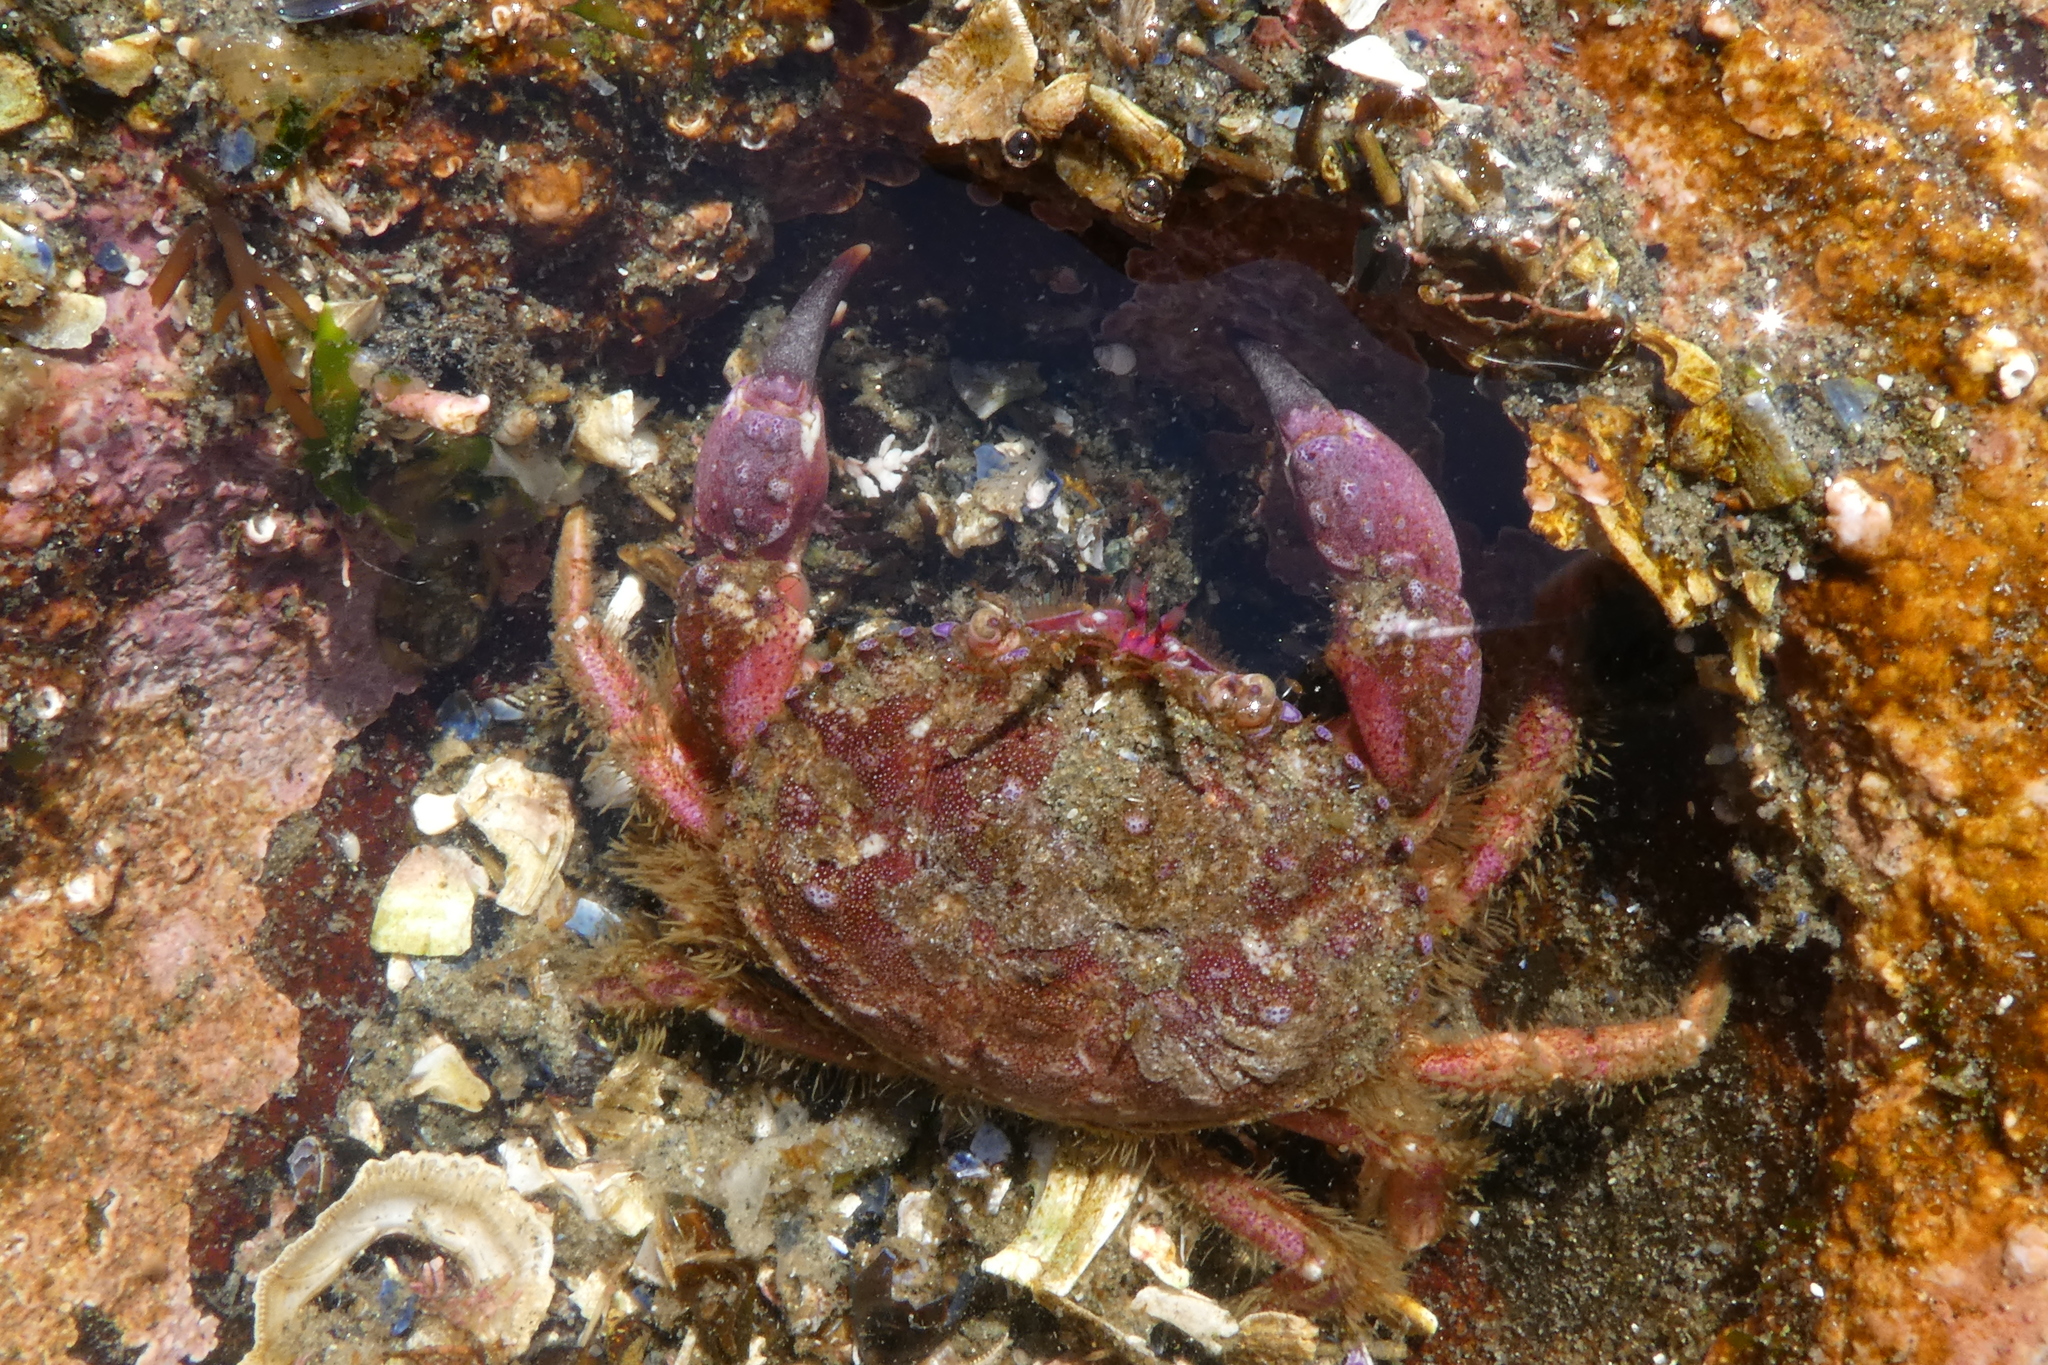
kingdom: Animalia
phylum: Arthropoda
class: Malacostraca
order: Decapoda
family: Cancridae
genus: Glebocarcinus
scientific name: Glebocarcinus oregonensis
